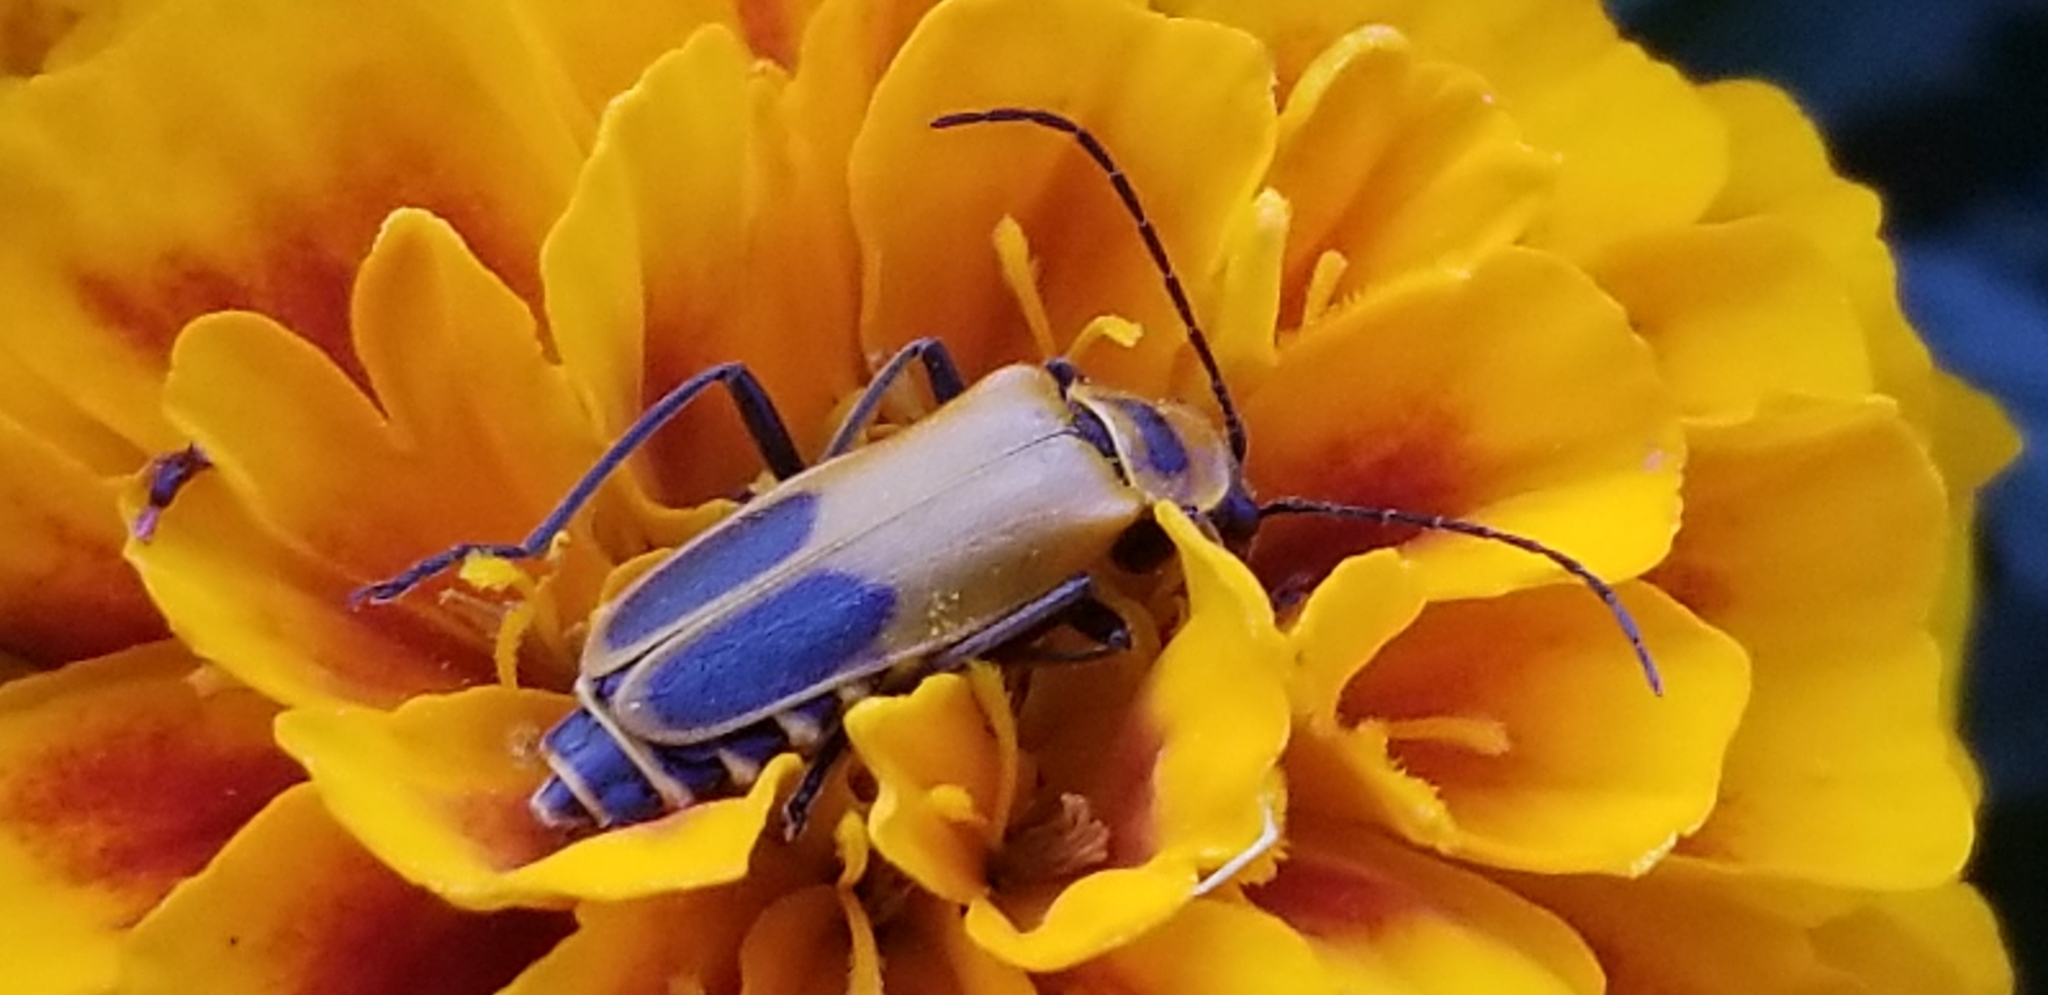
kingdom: Animalia
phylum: Arthropoda
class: Insecta
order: Coleoptera
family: Cantharidae
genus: Chauliognathus
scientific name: Chauliognathus pensylvanicus
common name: Goldenrod soldier beetle
